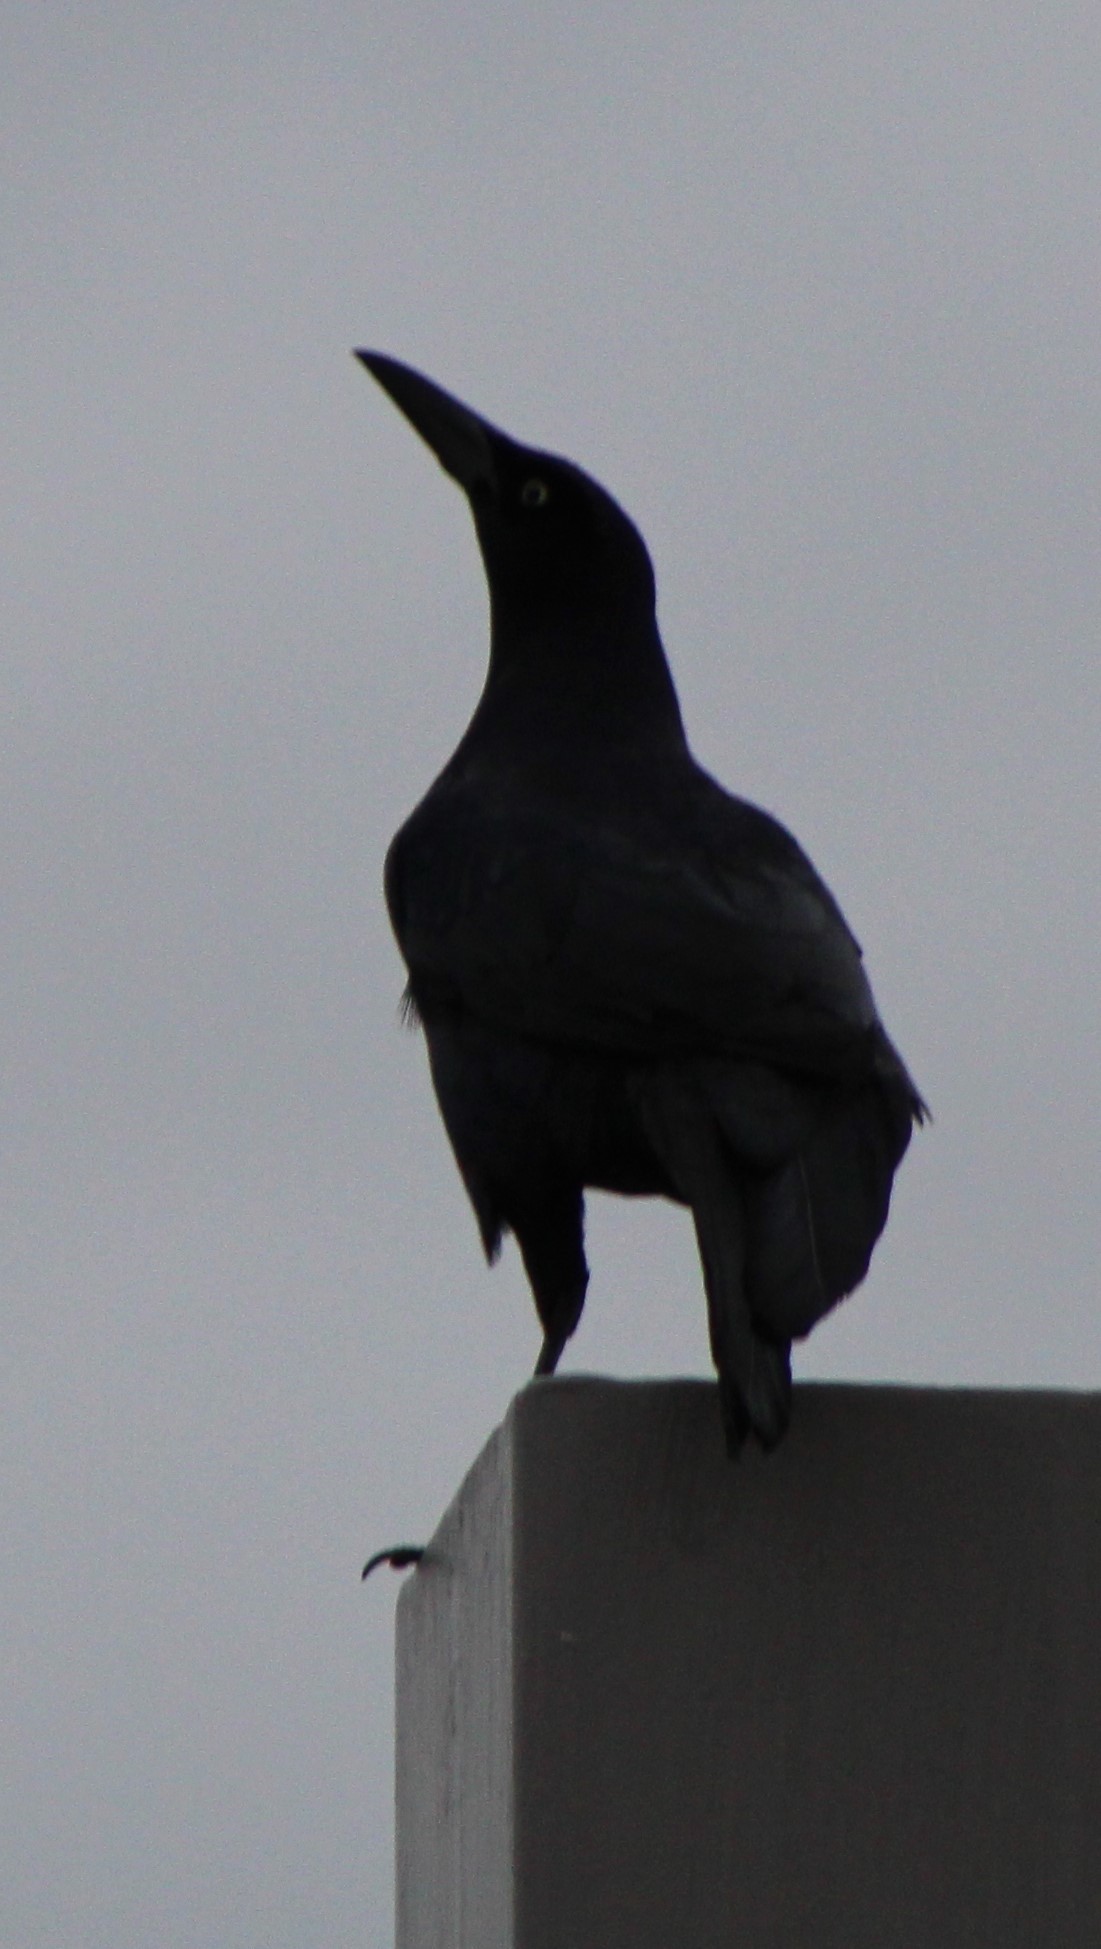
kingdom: Animalia
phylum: Chordata
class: Aves
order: Passeriformes
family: Icteridae
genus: Quiscalus
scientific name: Quiscalus mexicanus
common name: Great-tailed grackle
